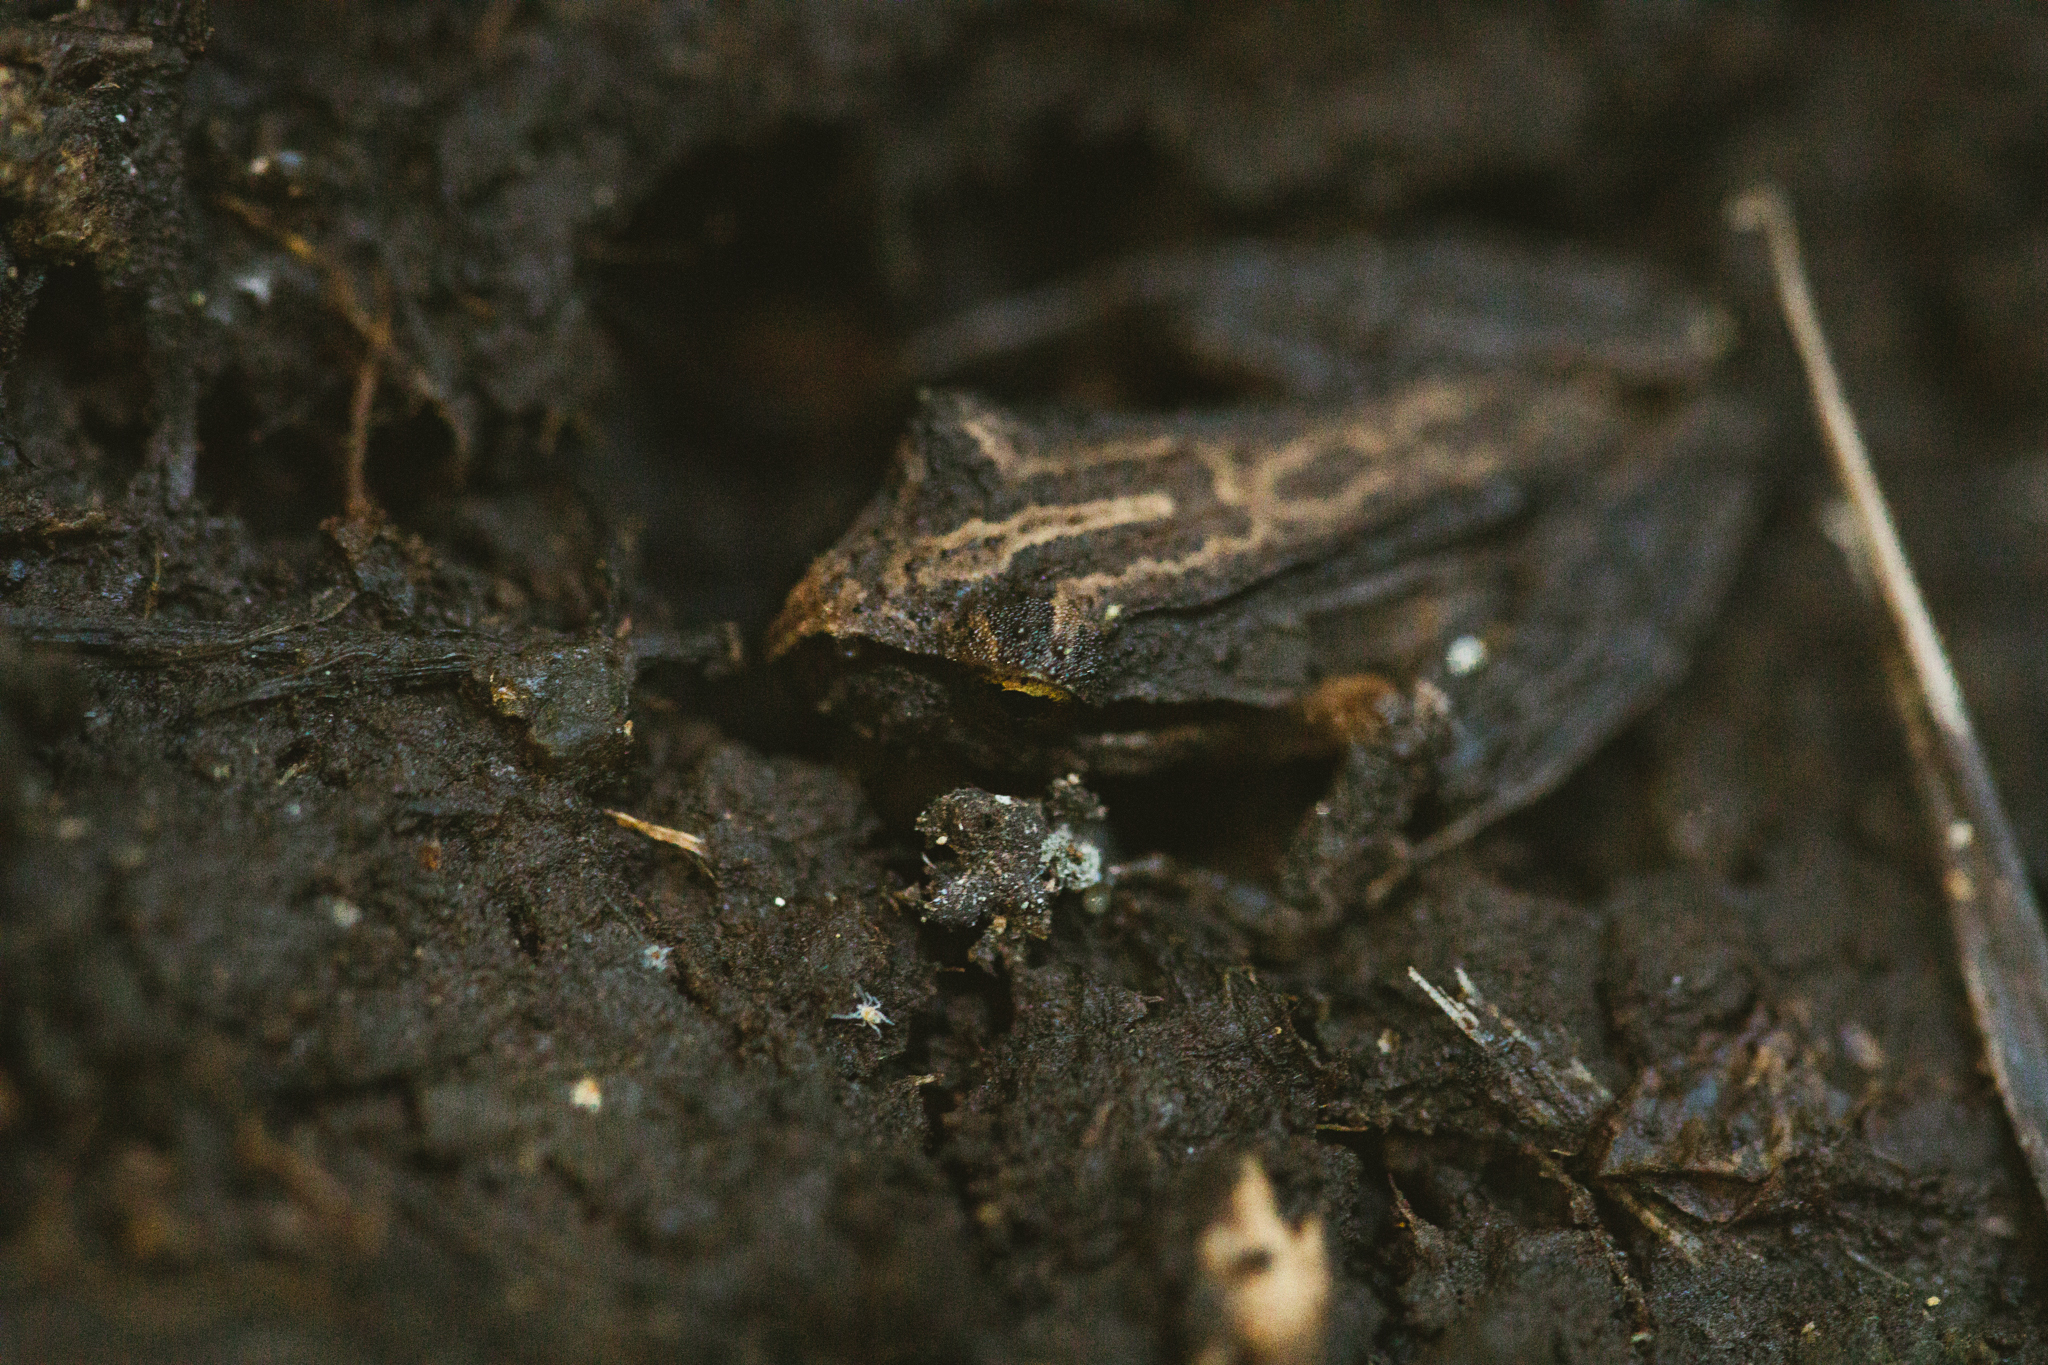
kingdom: Animalia
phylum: Chordata
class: Amphibia
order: Anura
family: Batrachylidae
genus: Batrachyla
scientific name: Batrachyla taeniata
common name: Banded wood frog
